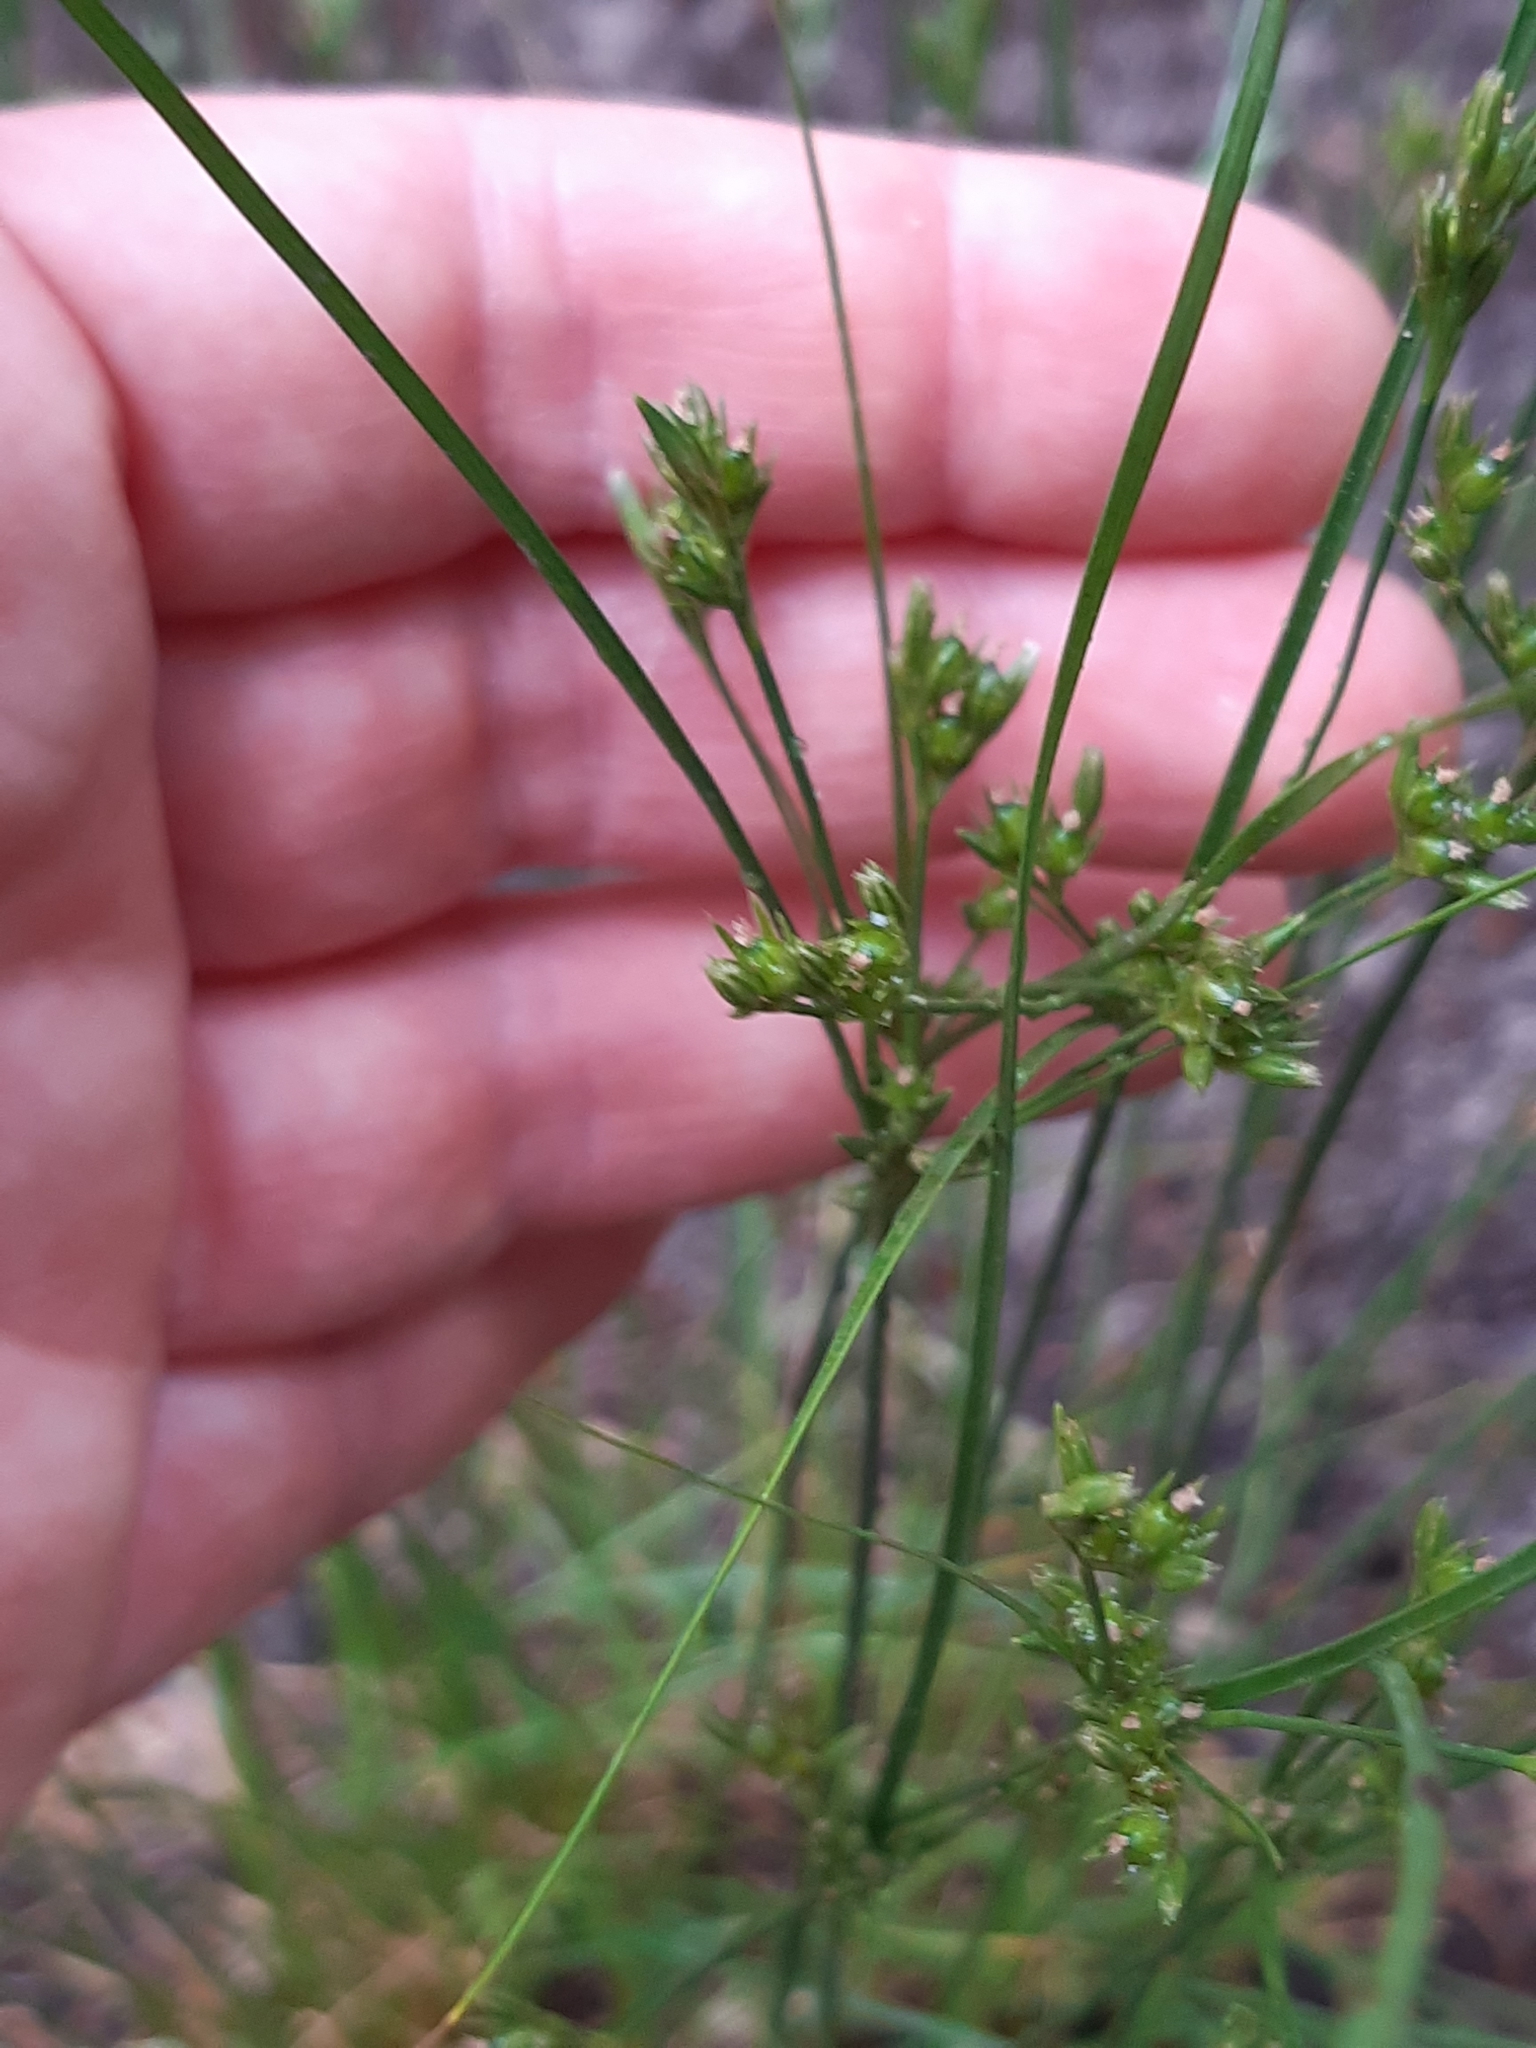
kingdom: Plantae
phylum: Tracheophyta
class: Liliopsida
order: Poales
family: Juncaceae
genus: Juncus
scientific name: Juncus tenuis
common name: Slender rush
